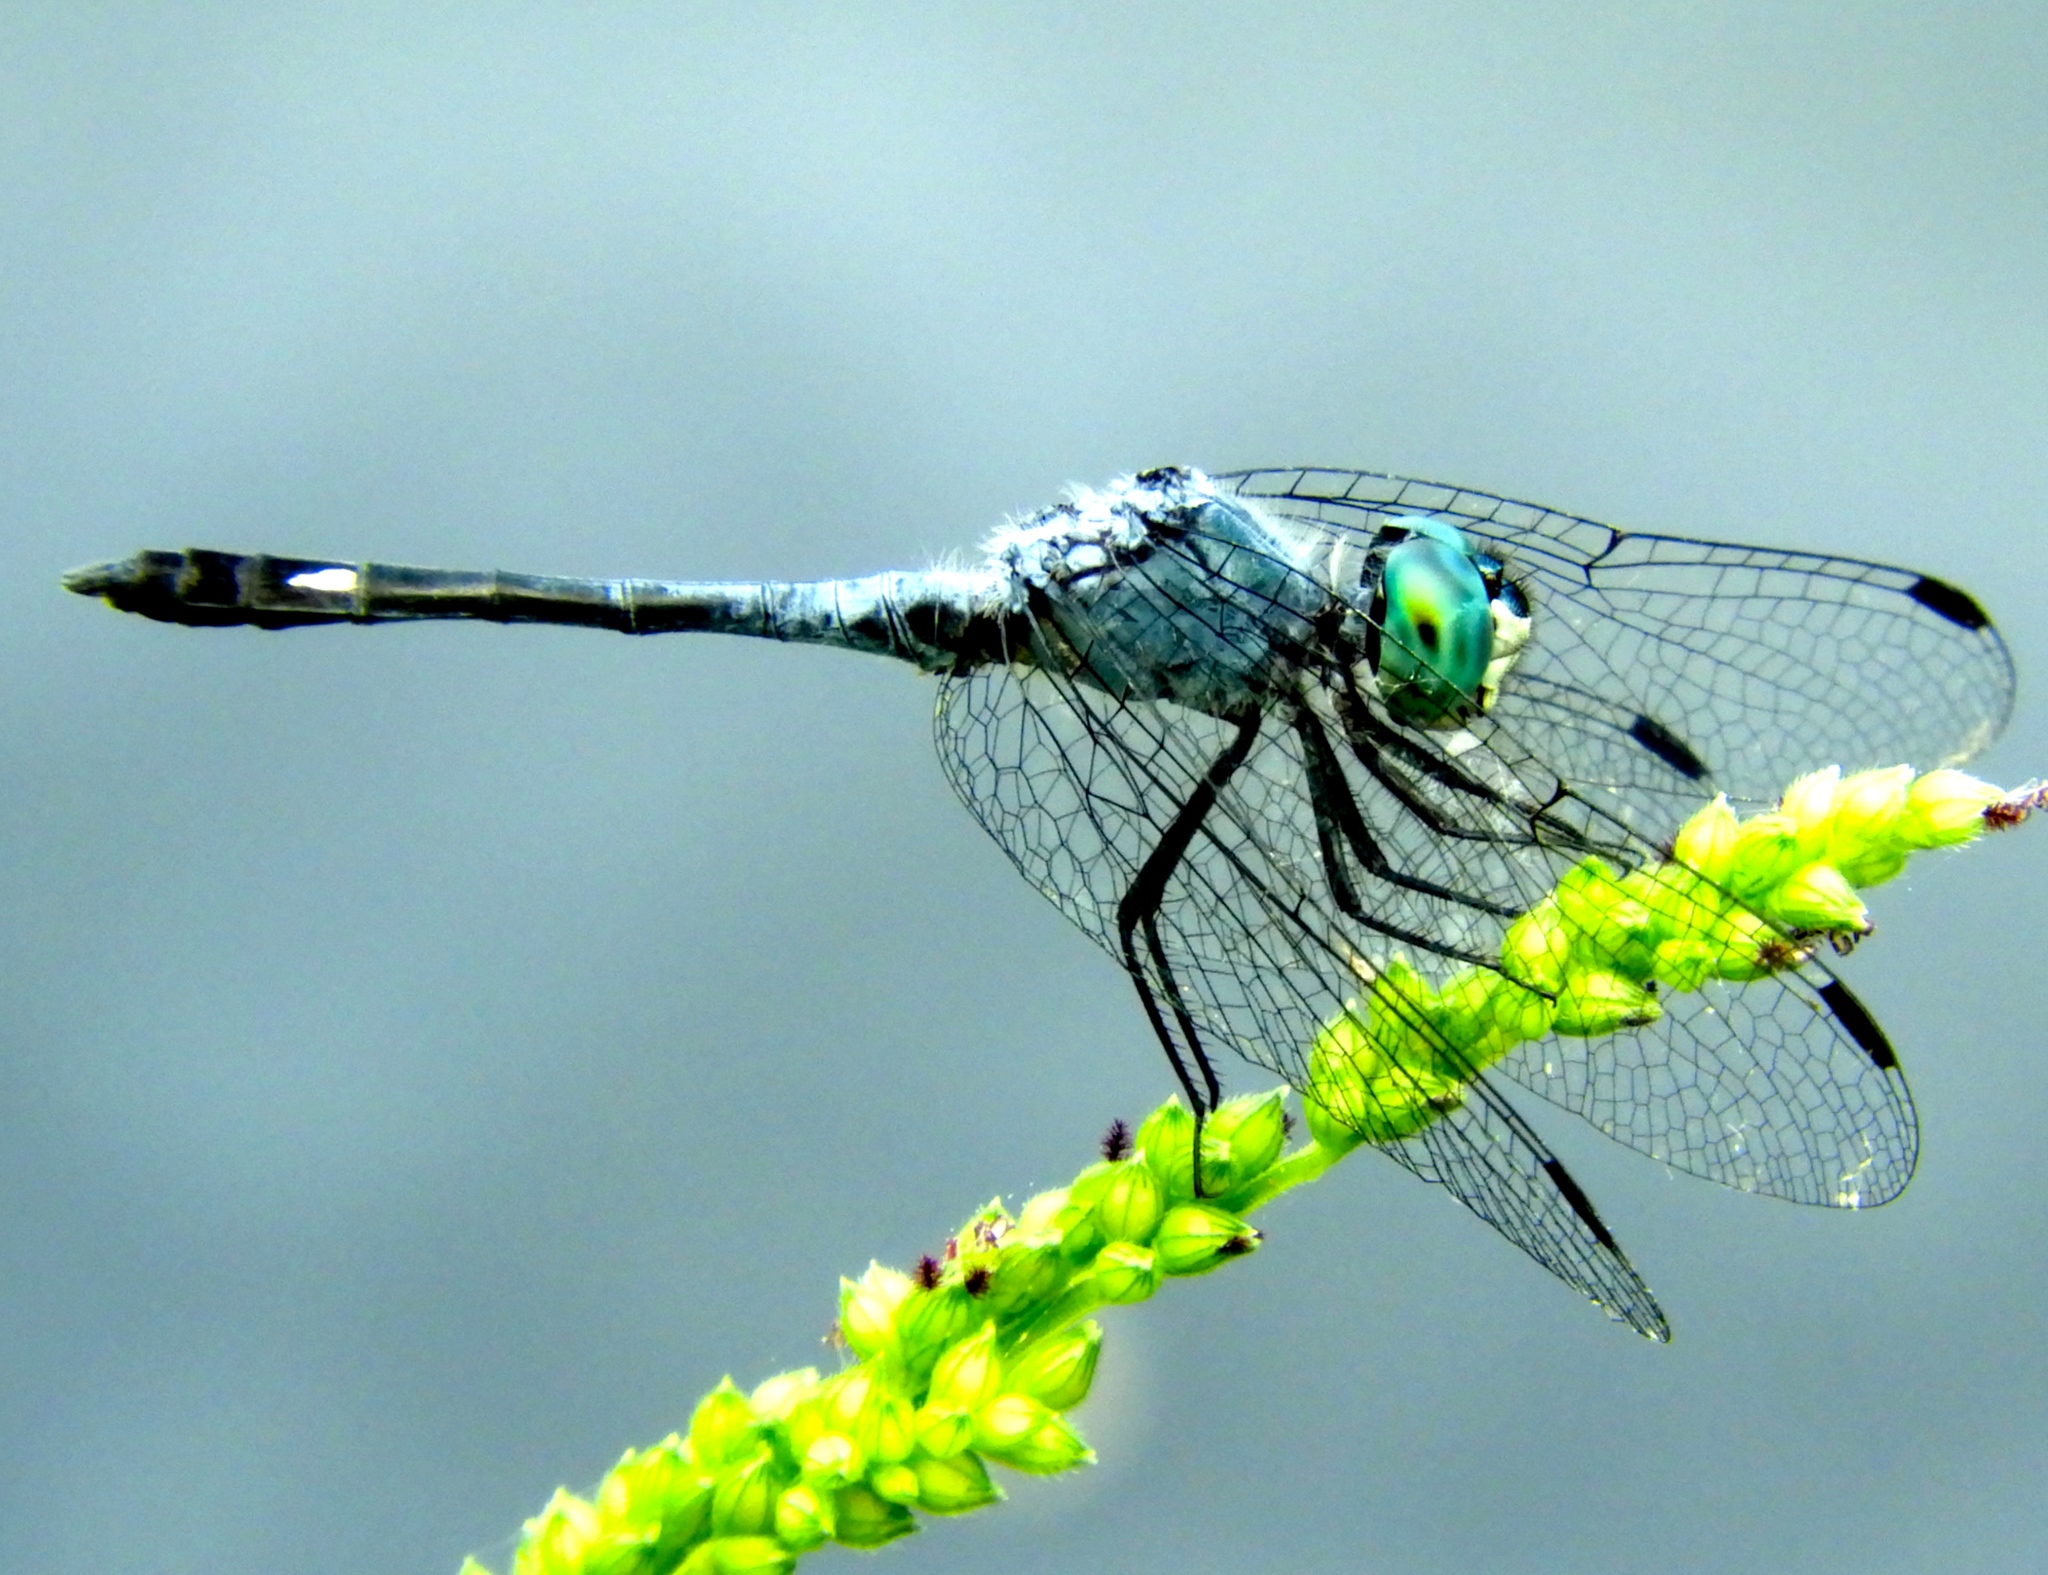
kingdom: Animalia
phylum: Arthropoda
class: Insecta
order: Odonata
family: Libellulidae
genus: Micrathyria
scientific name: Micrathyria aequalis
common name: Spot-tailed dasher
